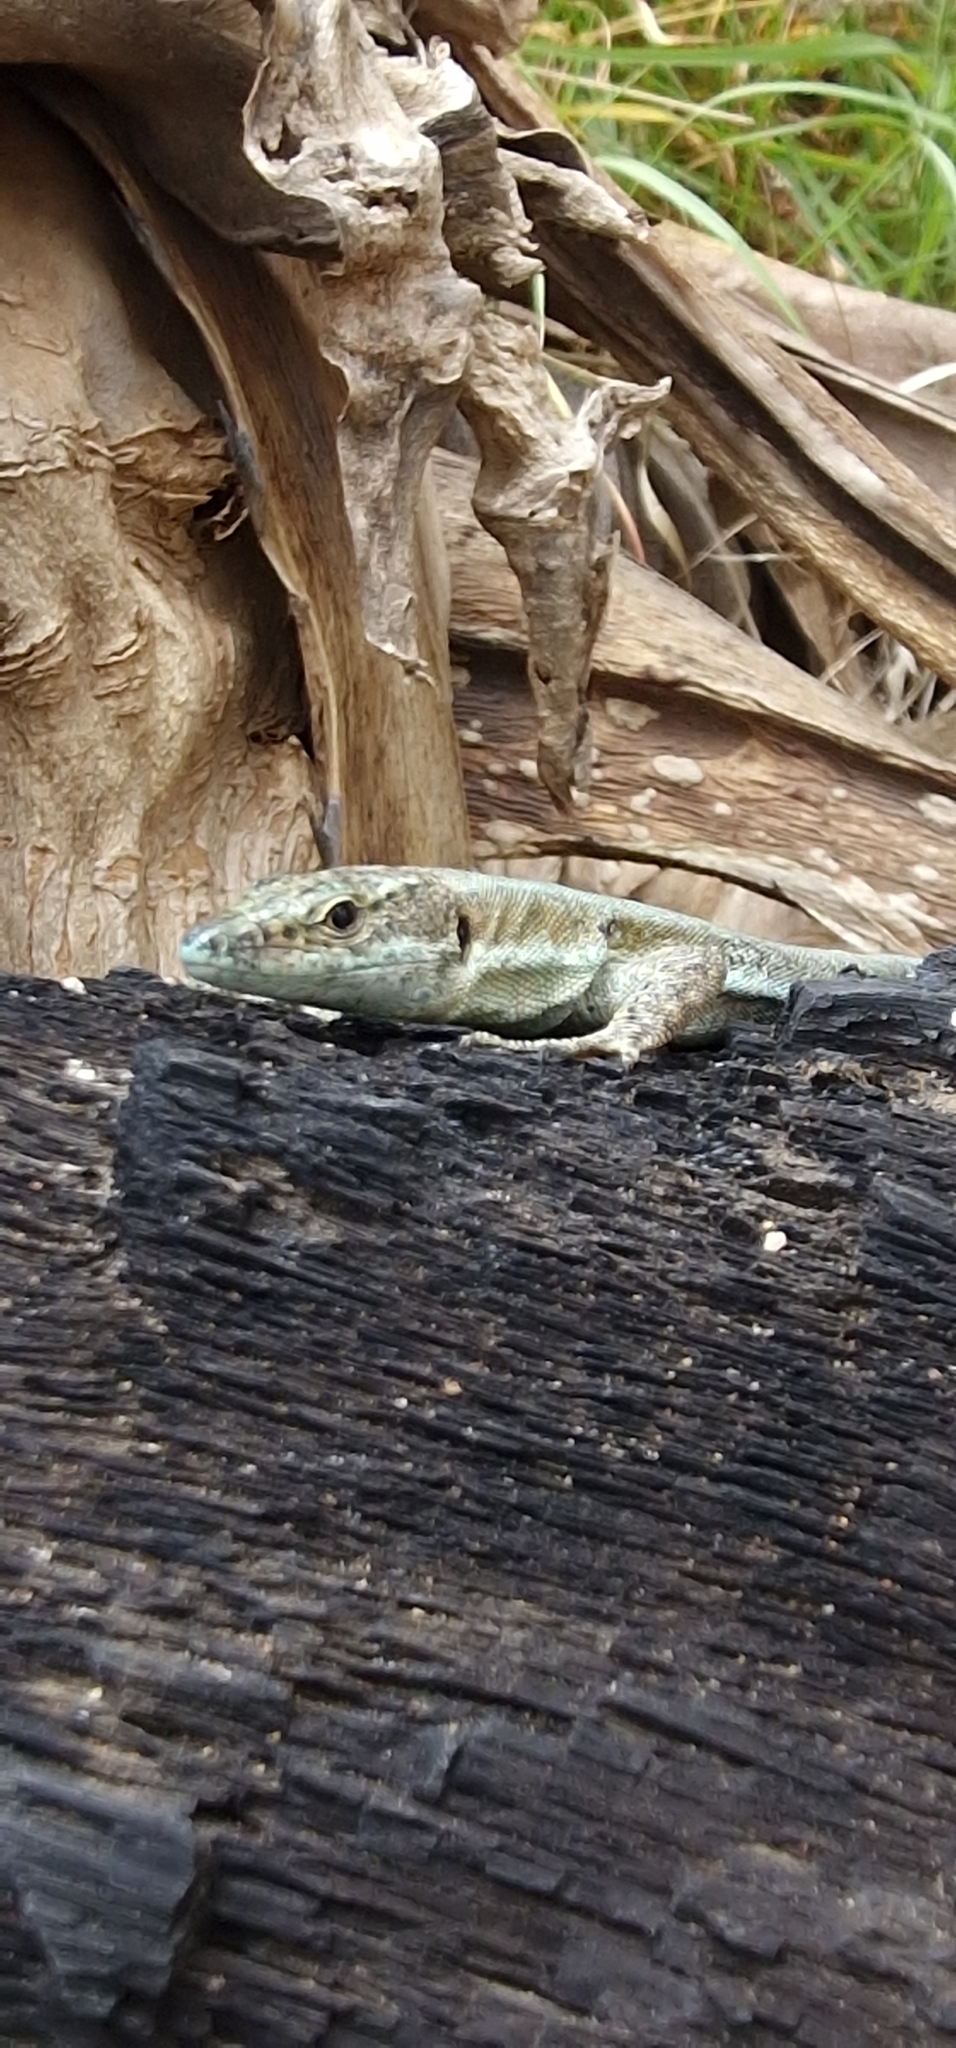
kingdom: Animalia
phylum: Chordata
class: Squamata
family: Lacertidae
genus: Teira
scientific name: Teira dugesii
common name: Madeira lizard
